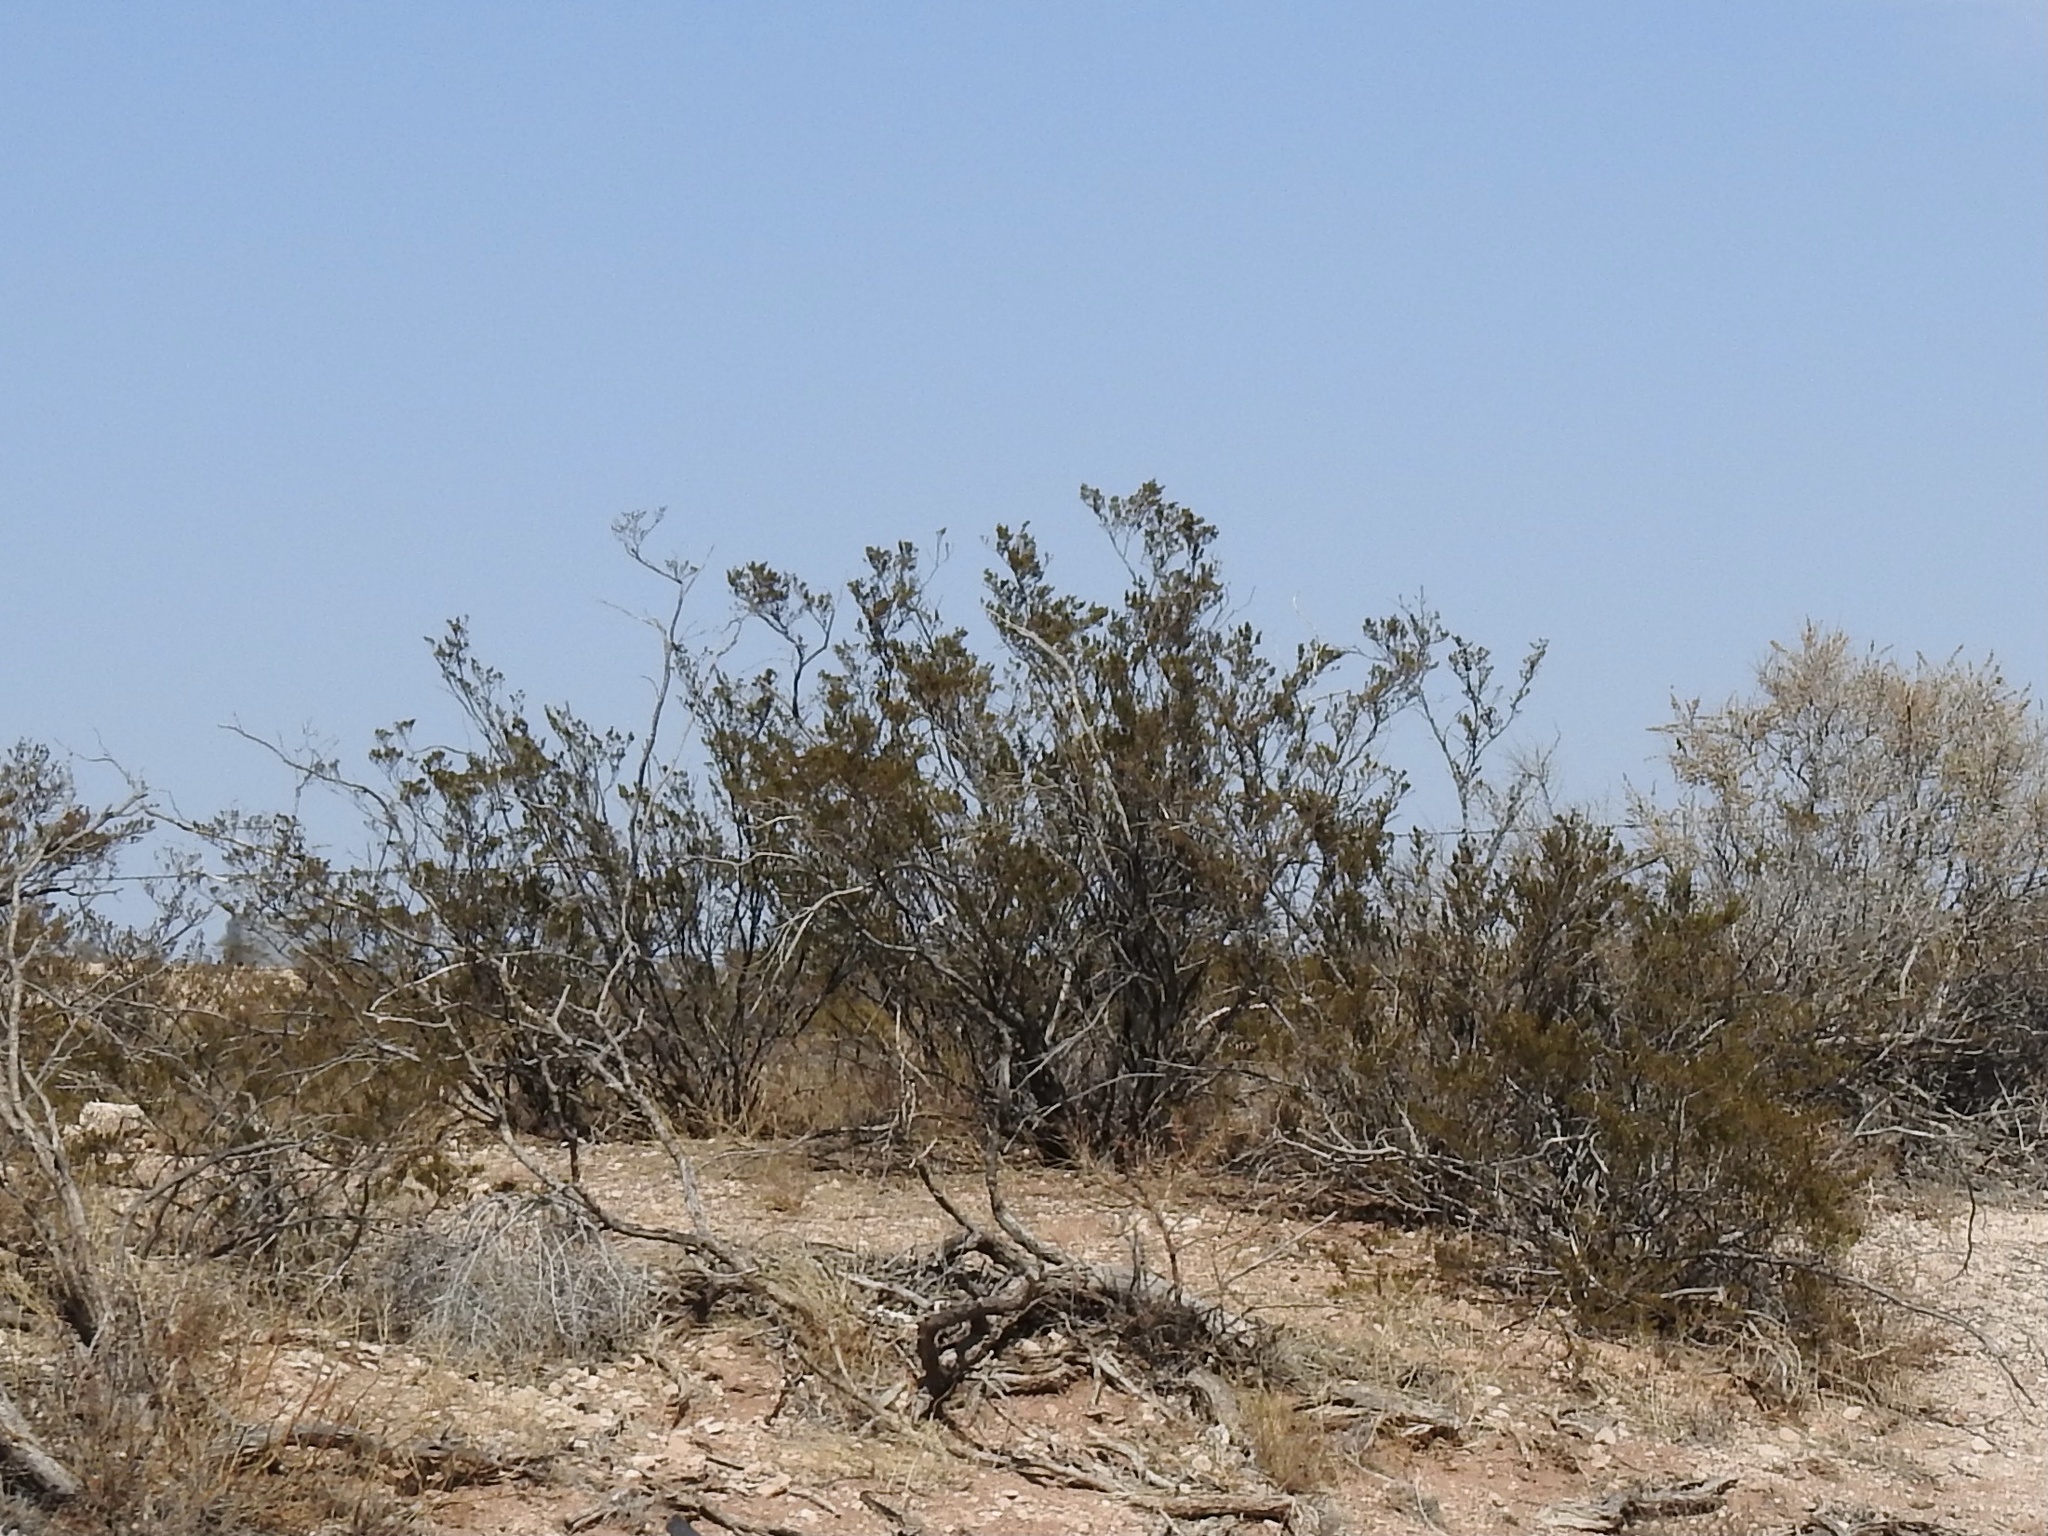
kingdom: Plantae
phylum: Tracheophyta
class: Magnoliopsida
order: Zygophyllales
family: Zygophyllaceae
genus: Larrea
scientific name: Larrea tridentata
